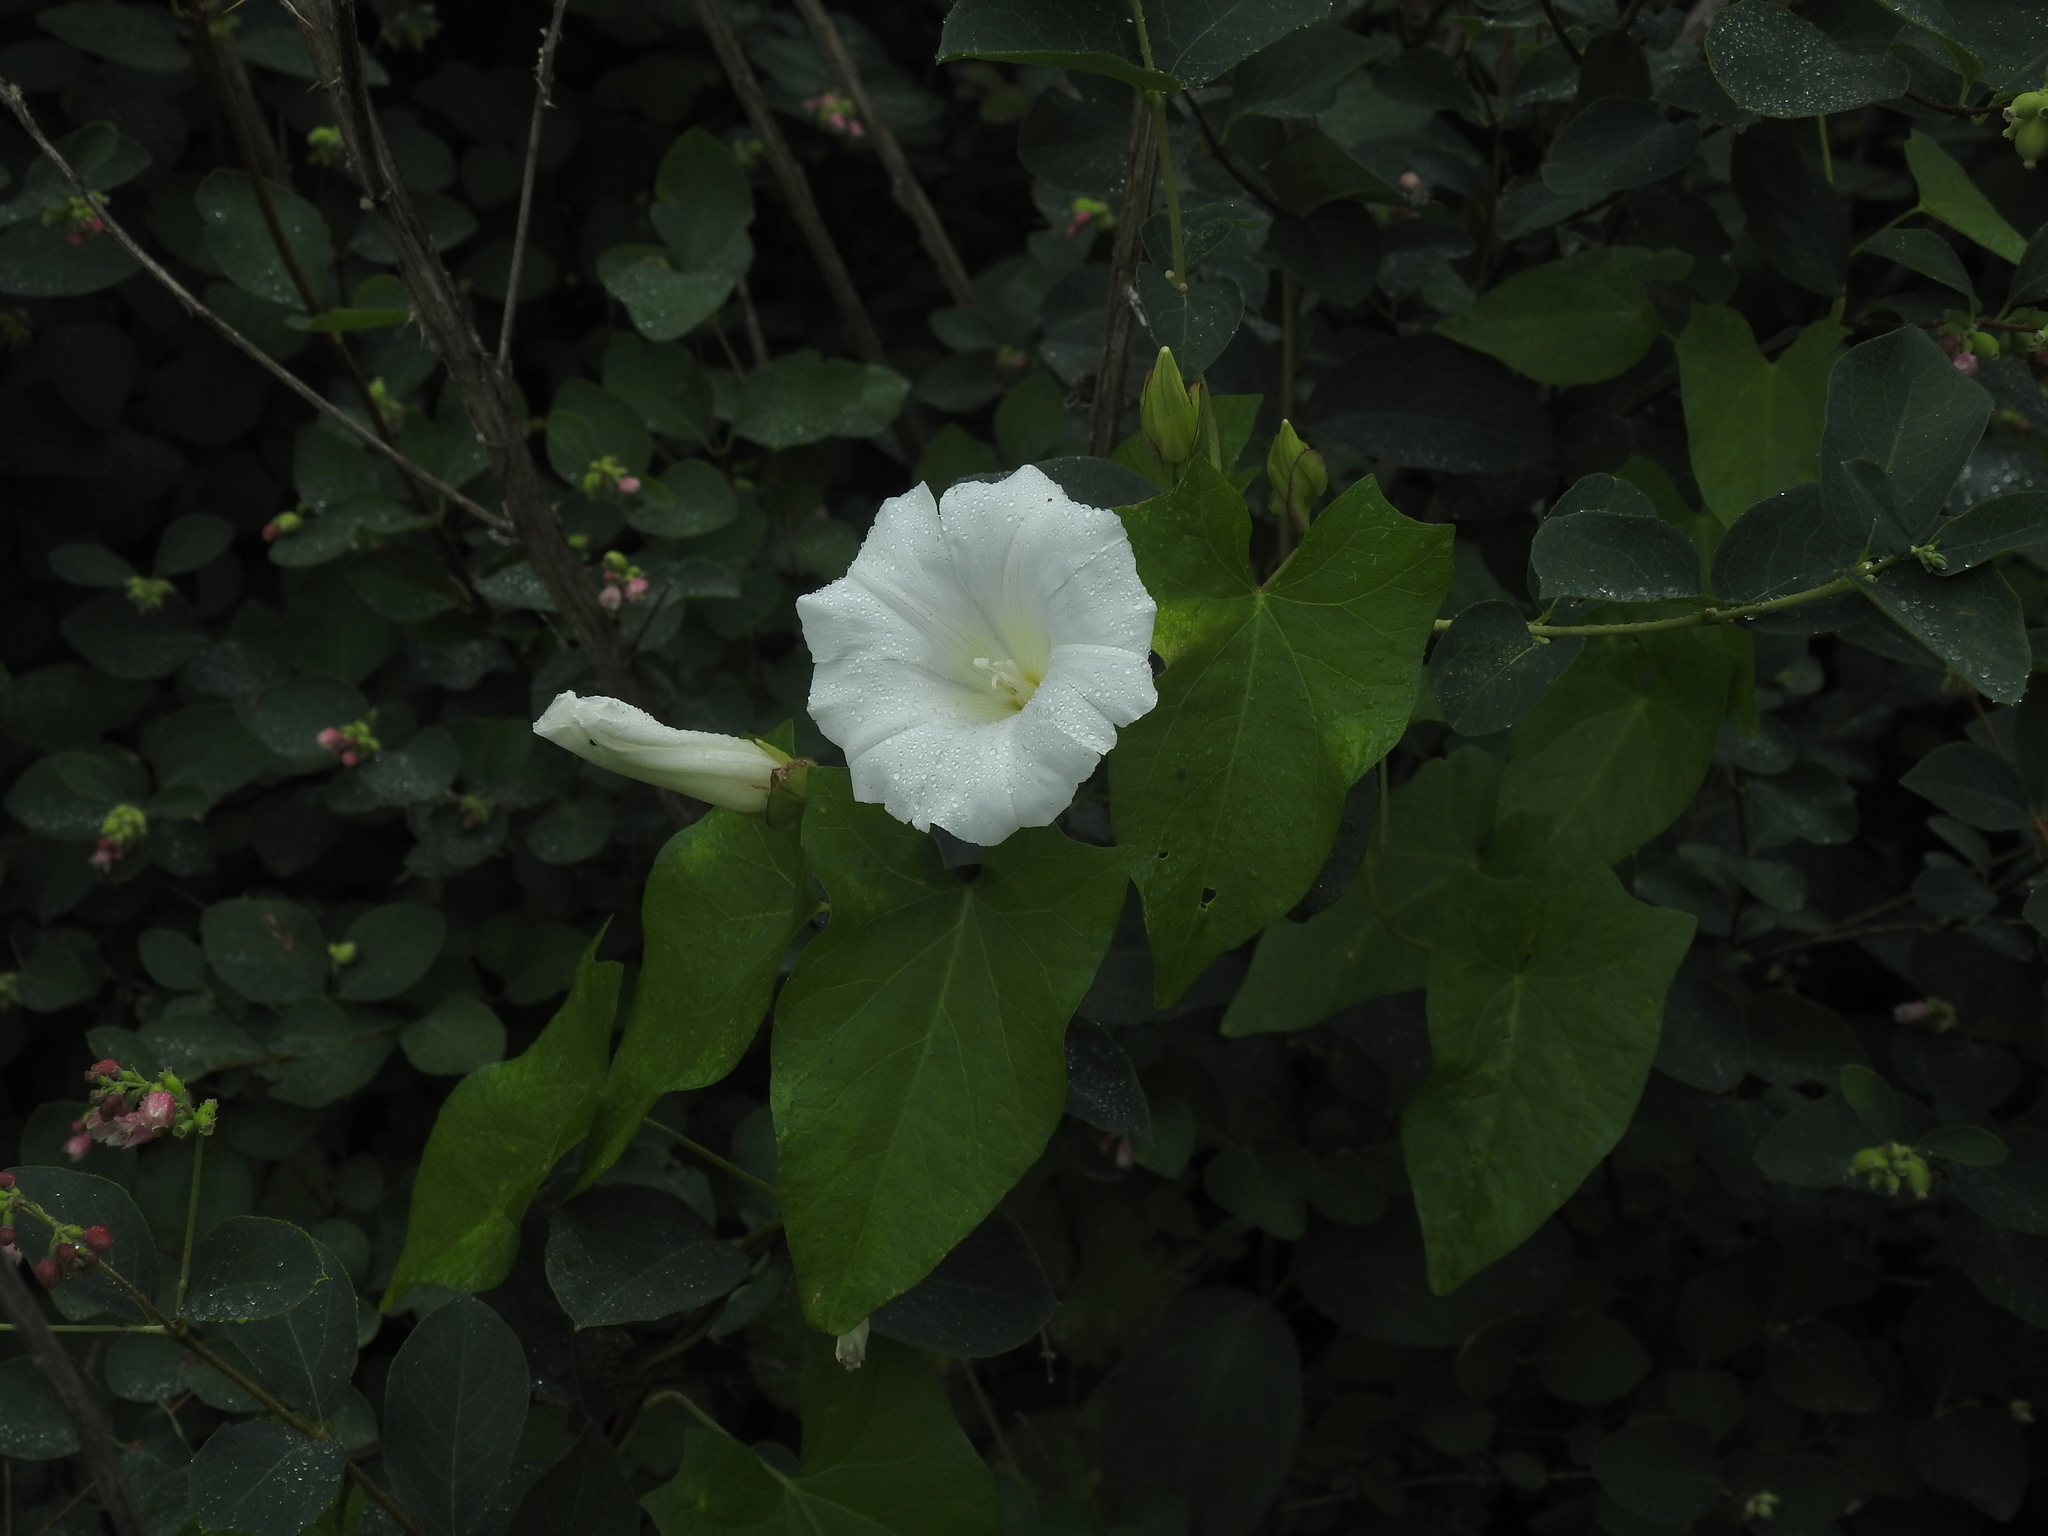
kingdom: Plantae
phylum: Tracheophyta
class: Magnoliopsida
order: Solanales
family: Convolvulaceae
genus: Calystegia
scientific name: Calystegia sepium
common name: Hedge bindweed
